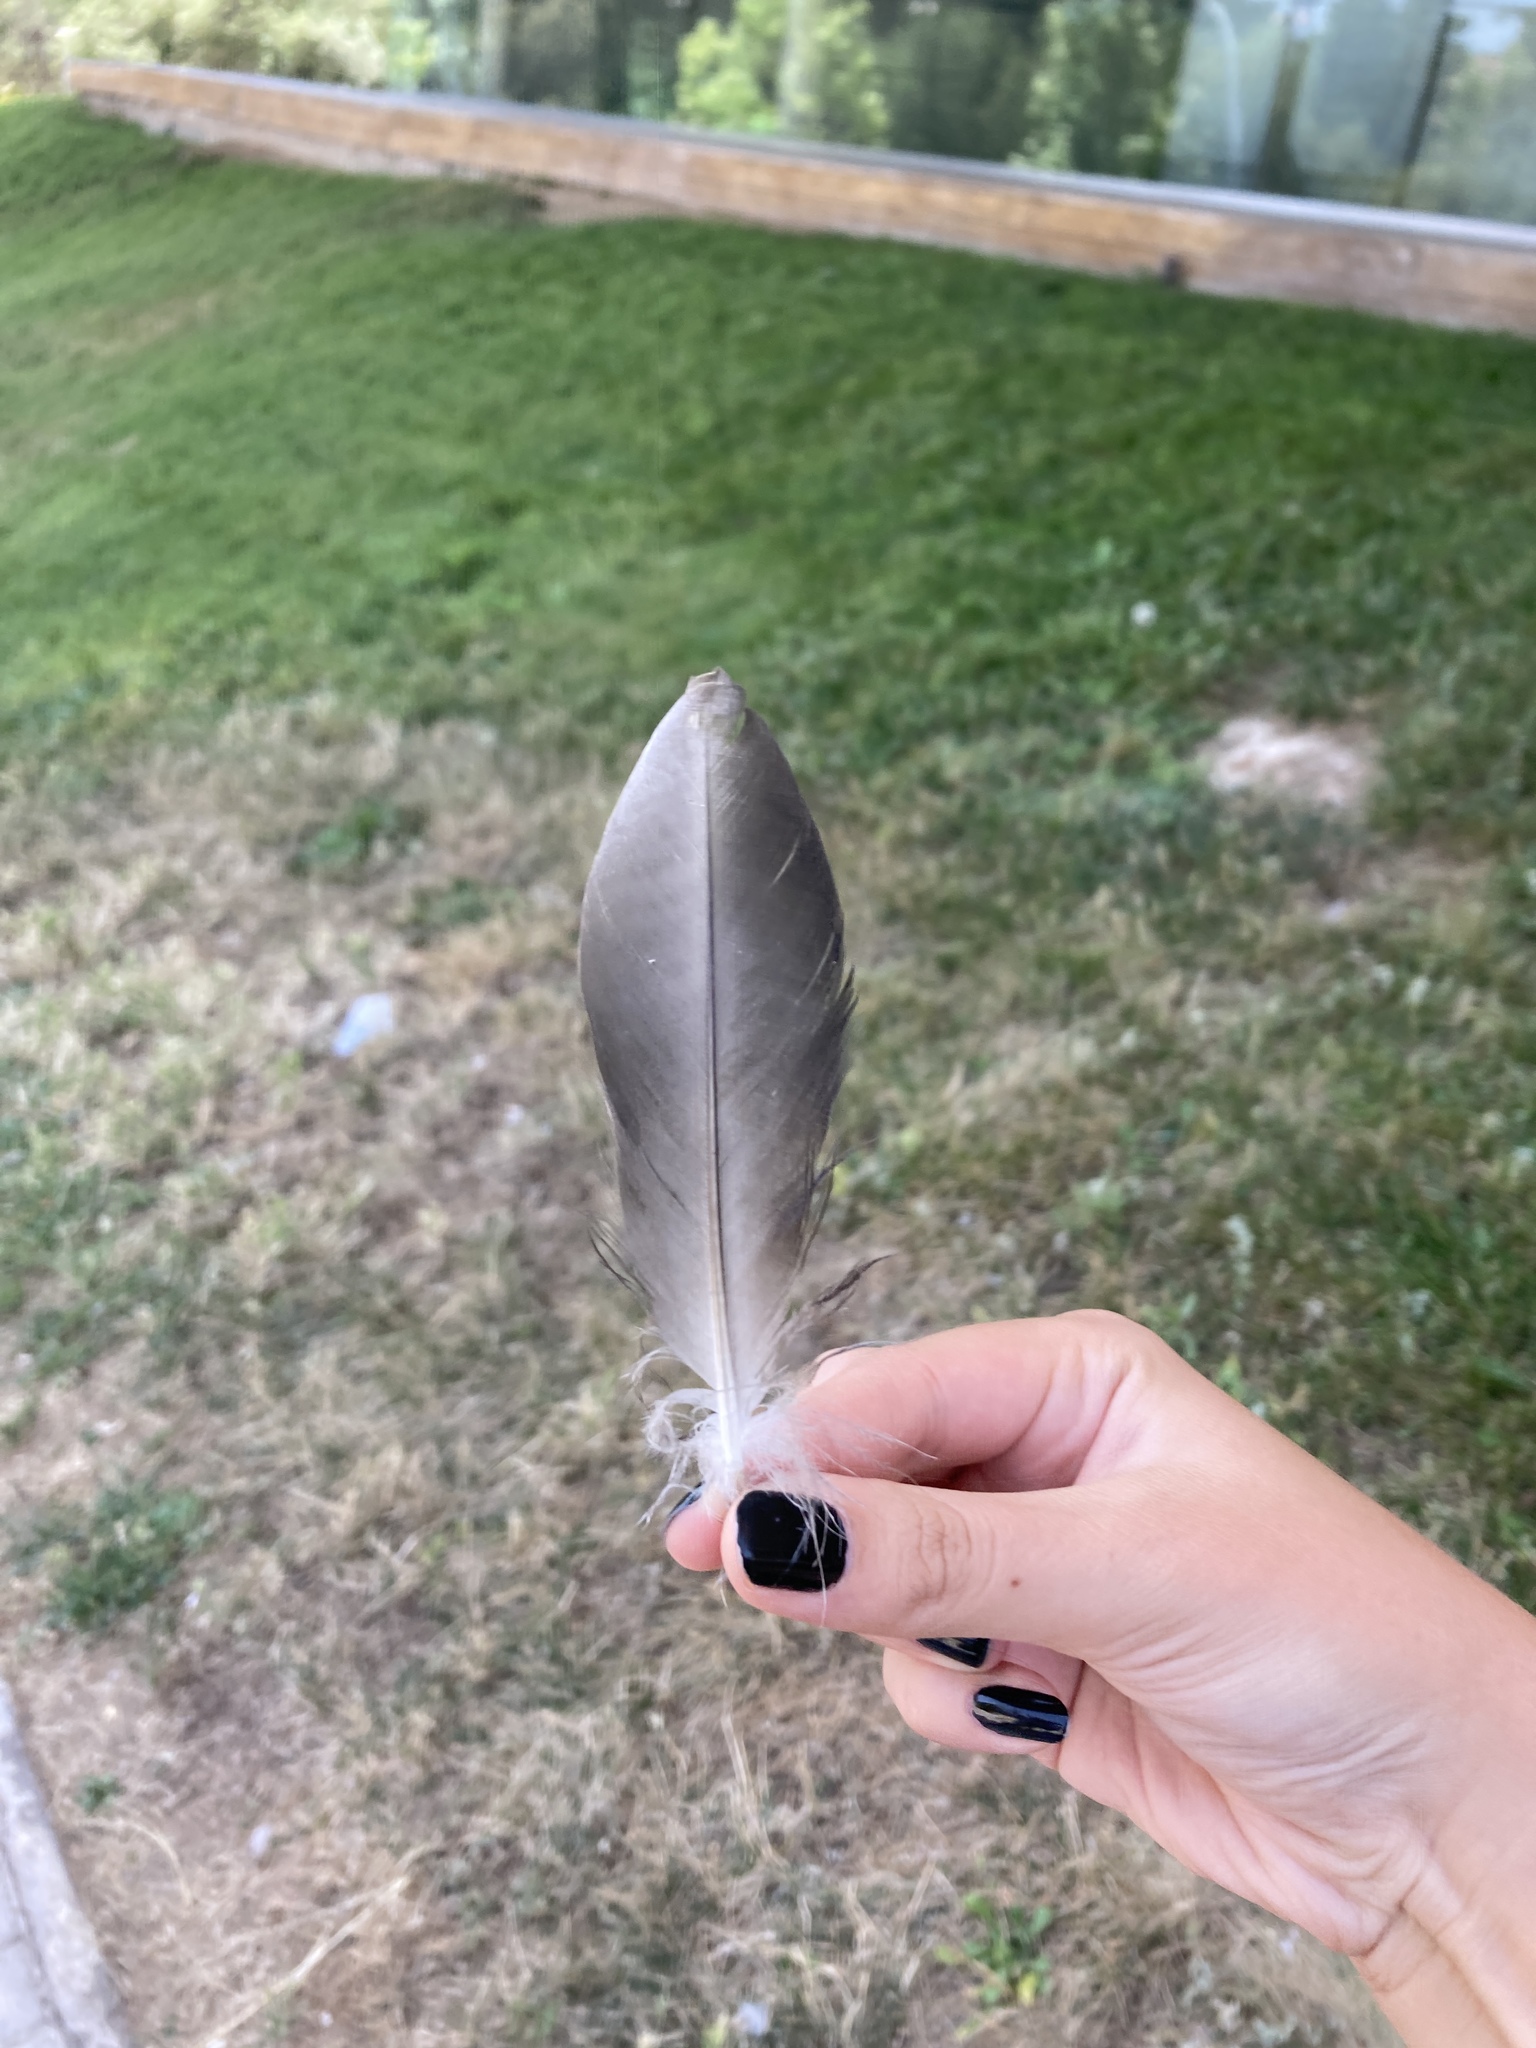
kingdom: Animalia
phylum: Chordata
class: Aves
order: Anseriformes
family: Anatidae
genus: Anas
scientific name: Anas platyrhynchos
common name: Mallard
